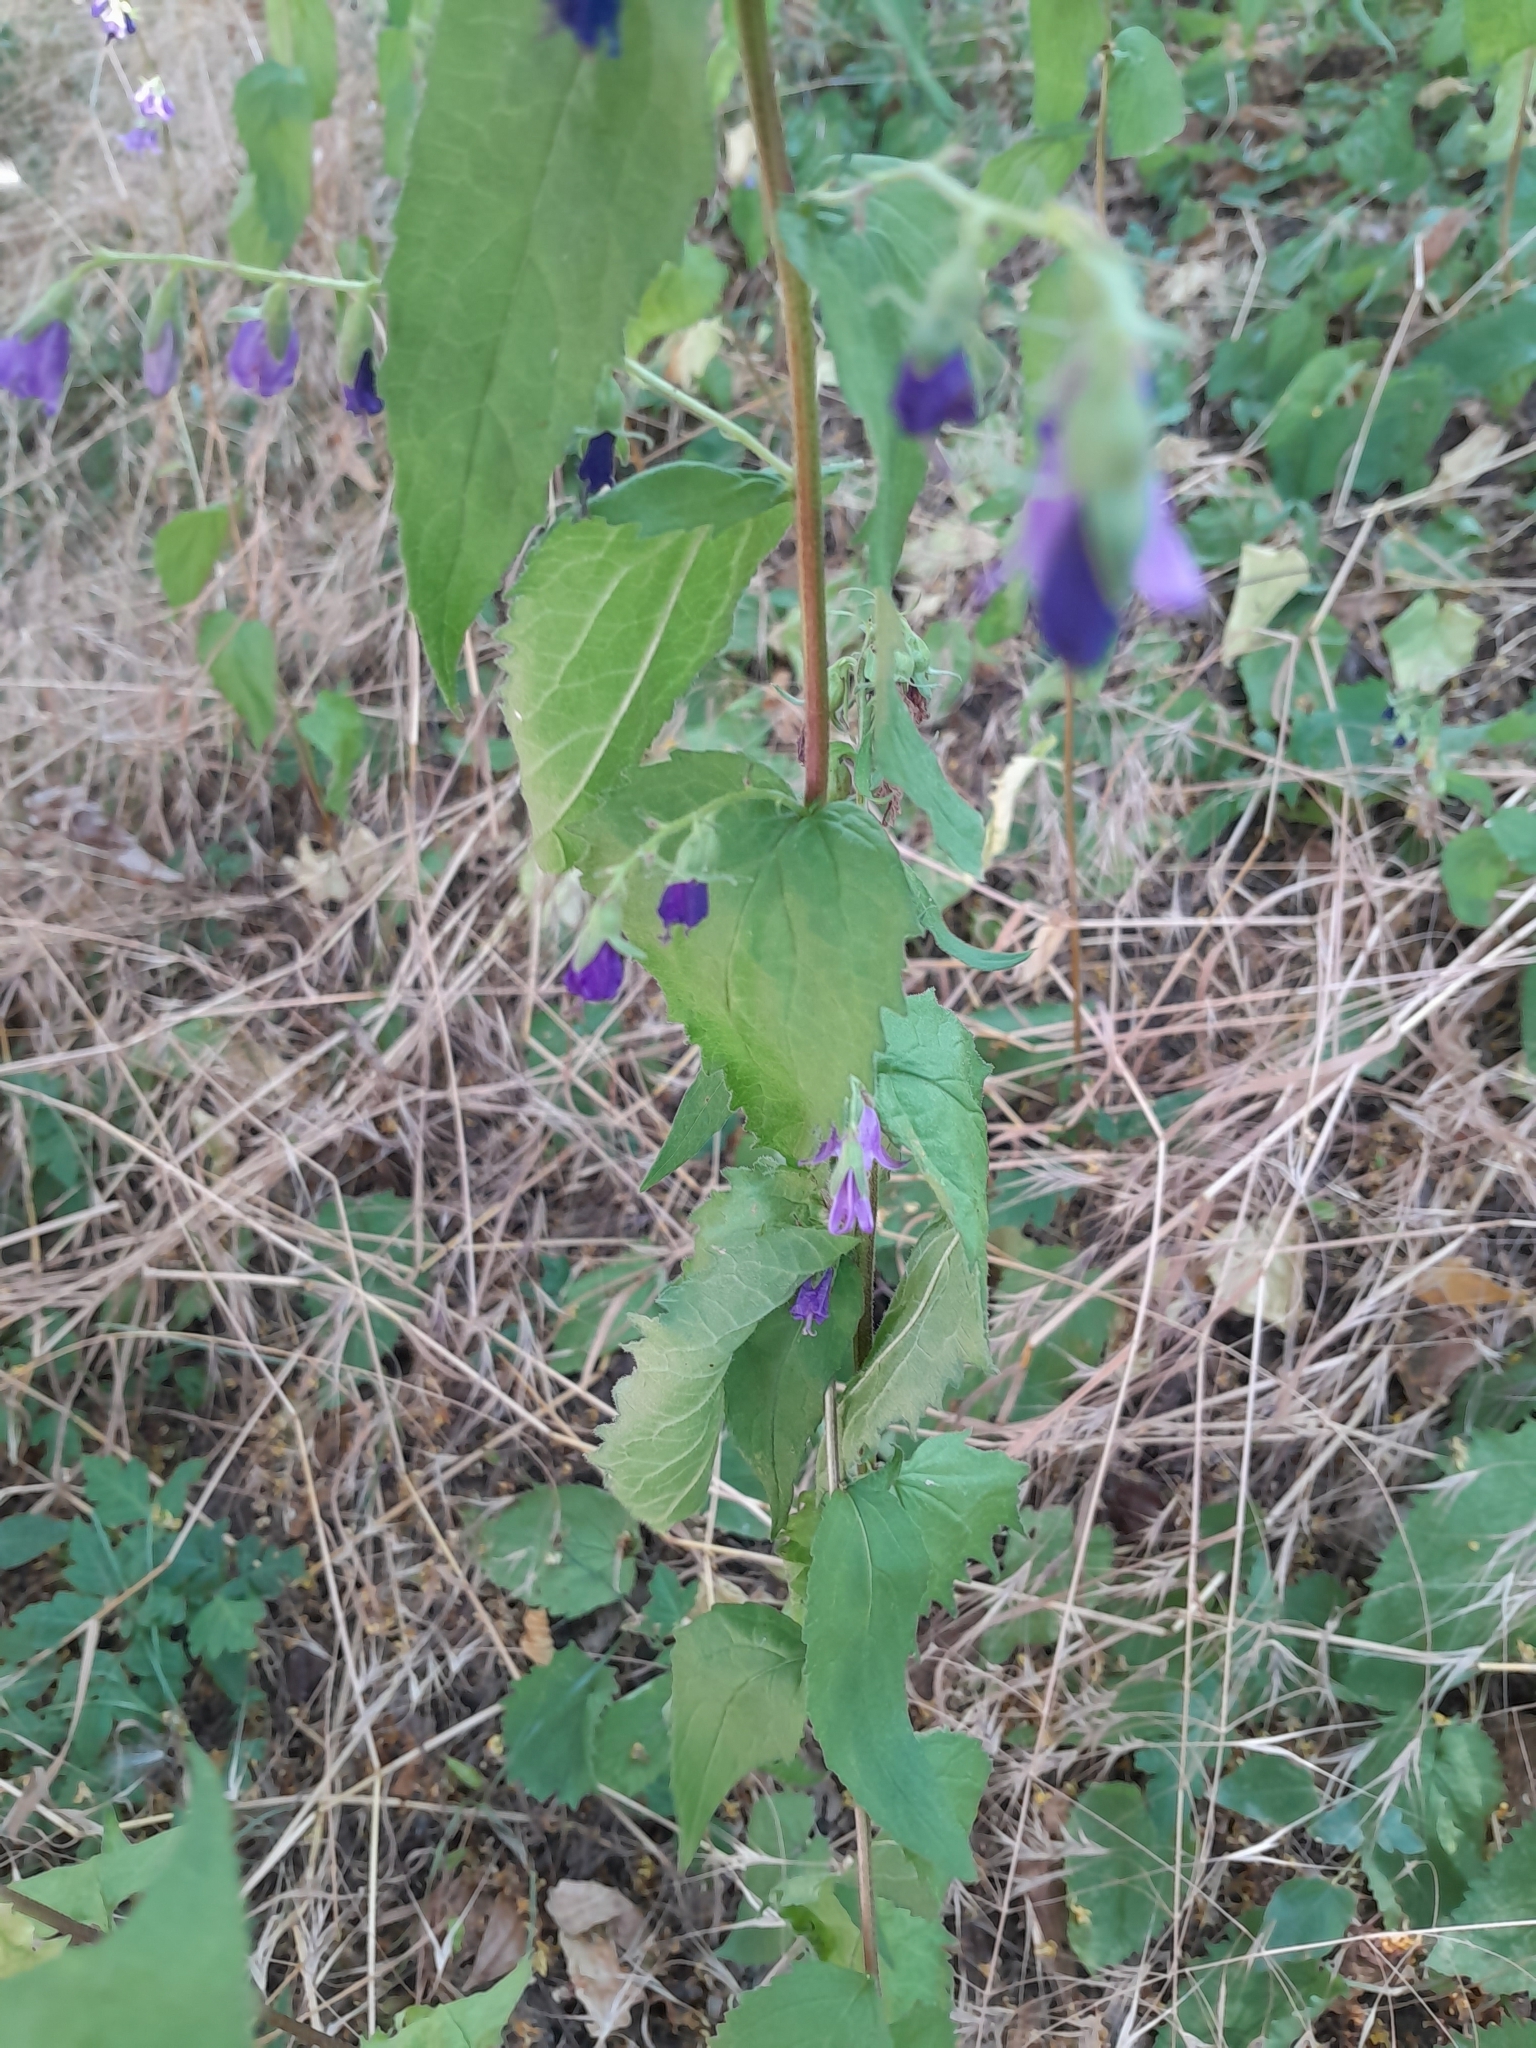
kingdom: Plantae
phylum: Tracheophyta
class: Magnoliopsida
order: Asterales
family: Campanulaceae
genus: Campanula
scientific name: Campanula trachelium
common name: Nettle-leaved bellflower
